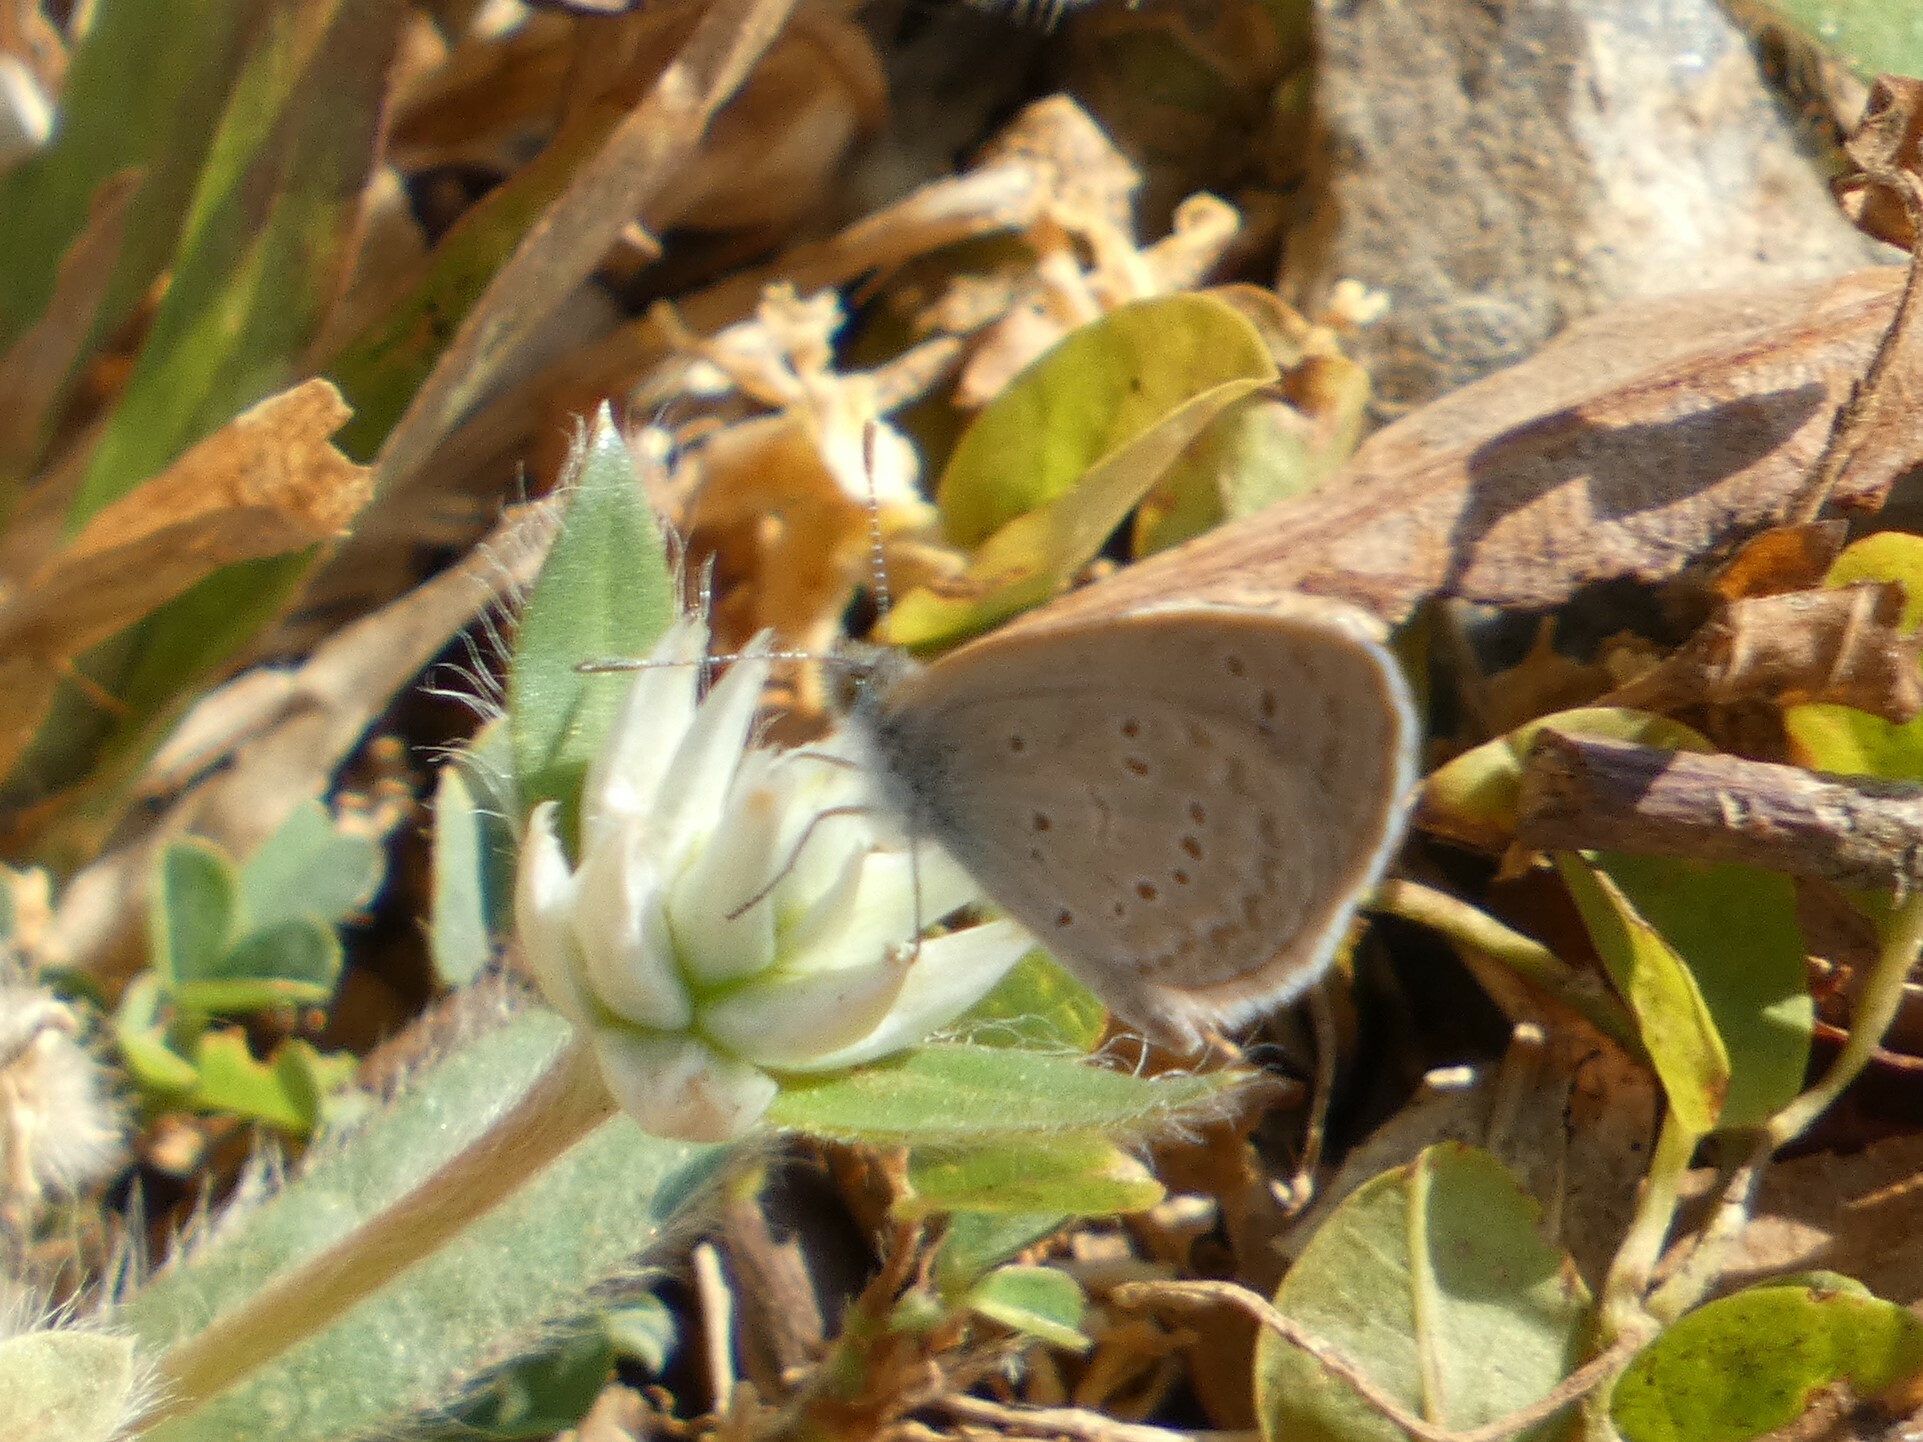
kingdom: Animalia
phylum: Arthropoda
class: Insecta
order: Lepidoptera
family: Lycaenidae
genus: Zizina
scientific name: Zizina otis
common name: Lesser grass blue
